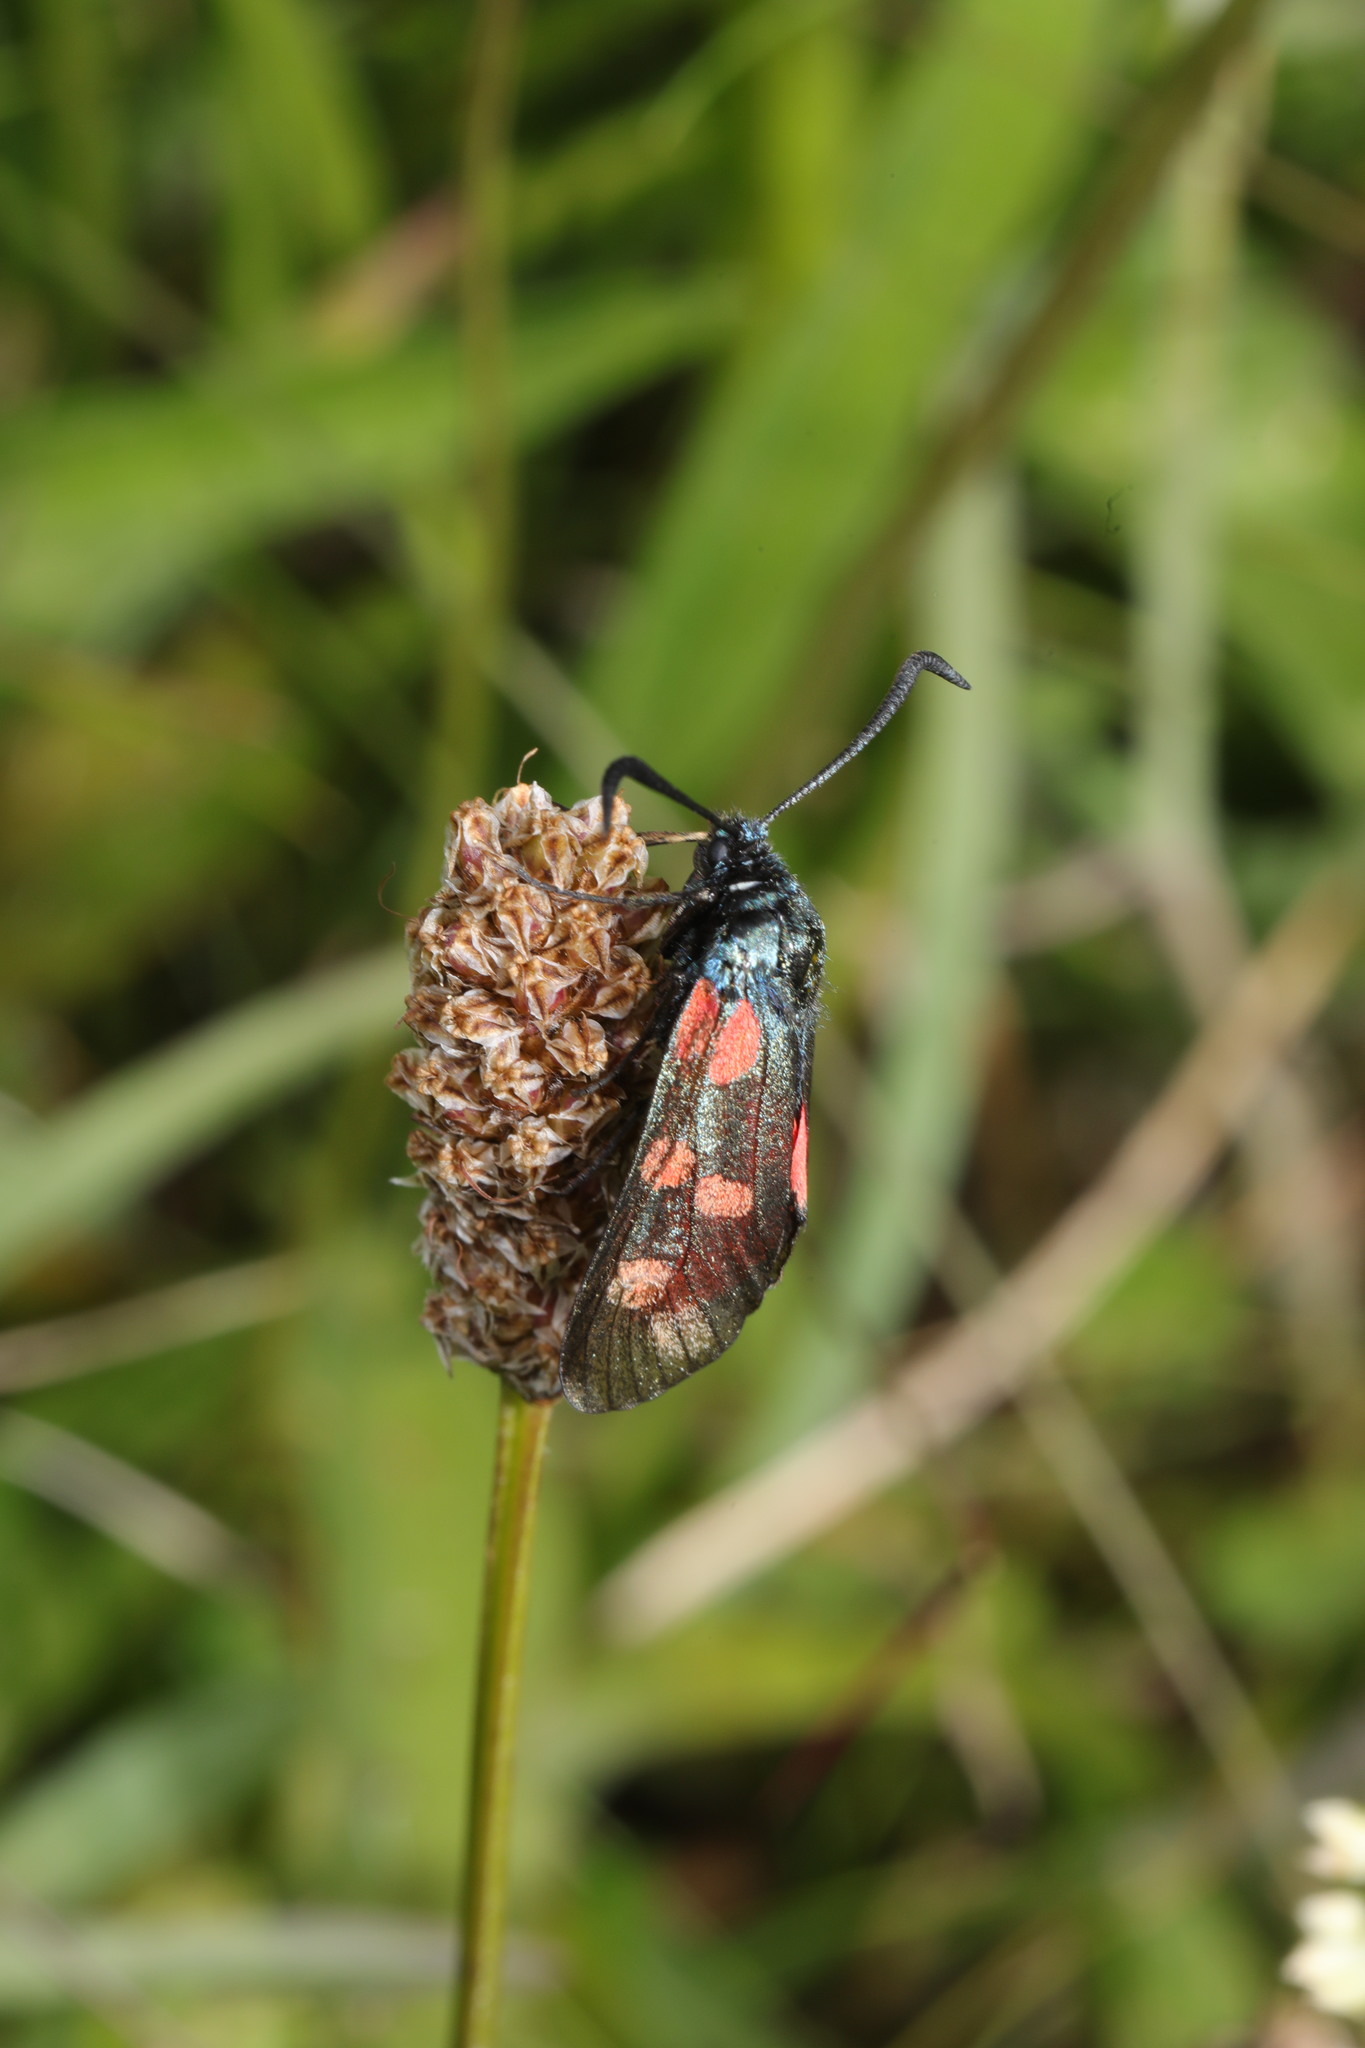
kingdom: Animalia
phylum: Arthropoda
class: Insecta
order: Lepidoptera
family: Zygaenidae
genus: Zygaena
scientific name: Zygaena filipendulae
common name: Six-spot burnet
